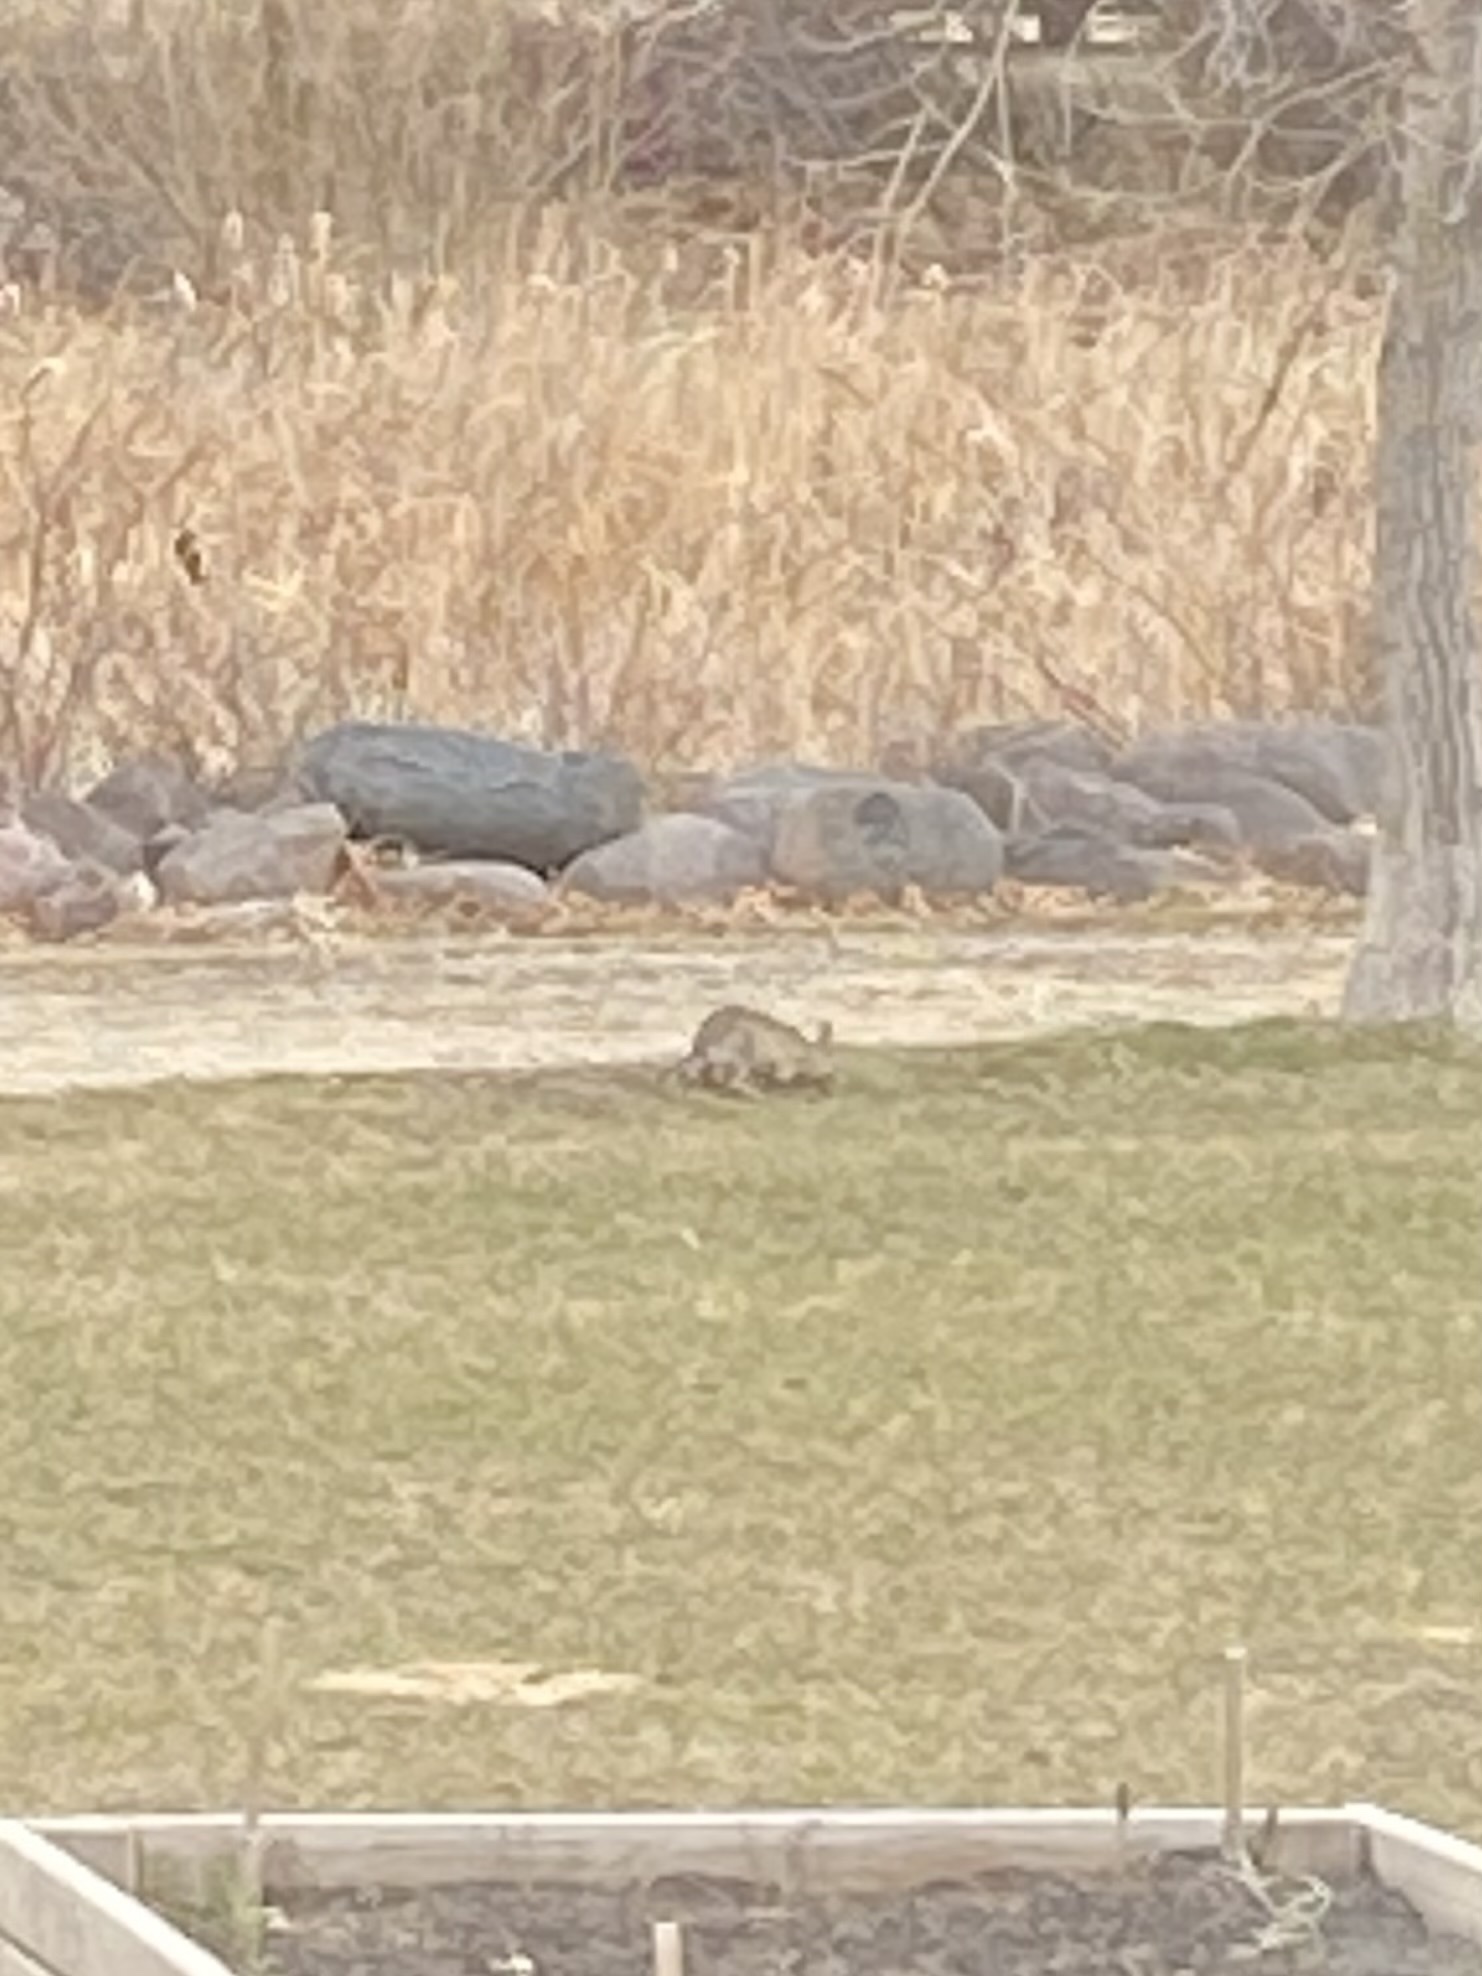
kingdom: Animalia
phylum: Chordata
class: Mammalia
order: Lagomorpha
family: Leporidae
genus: Sylvilagus
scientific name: Sylvilagus floridanus
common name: Eastern cottontail
